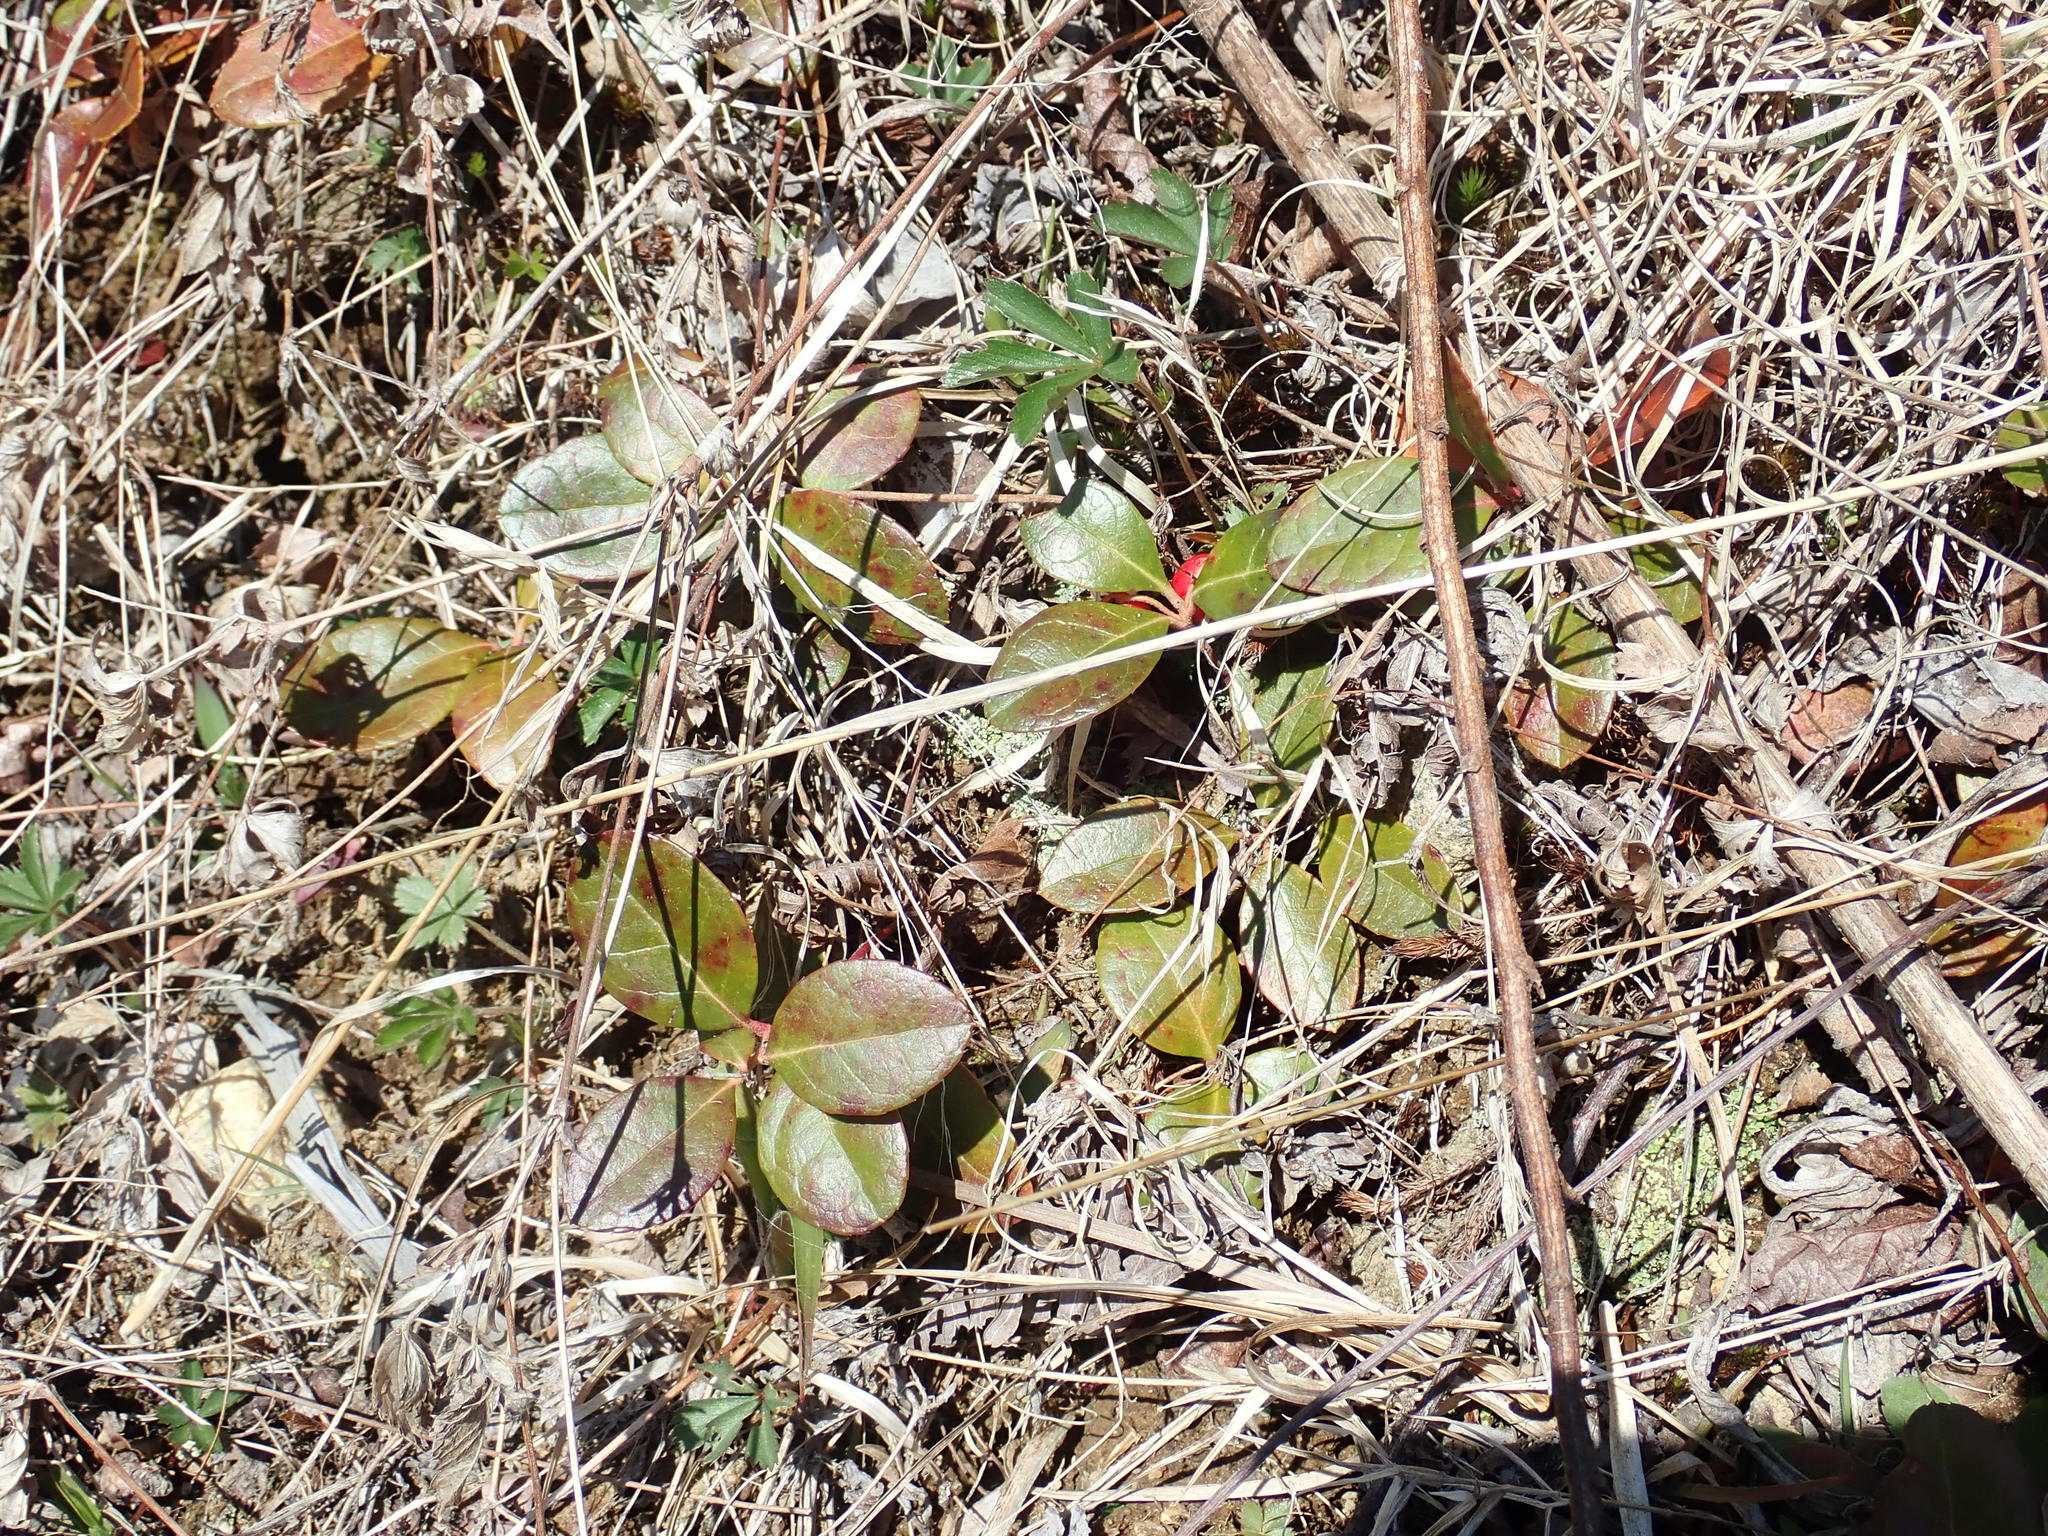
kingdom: Plantae
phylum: Tracheophyta
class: Magnoliopsida
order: Ericales
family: Ericaceae
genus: Gaultheria
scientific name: Gaultheria procumbens
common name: Checkerberry
